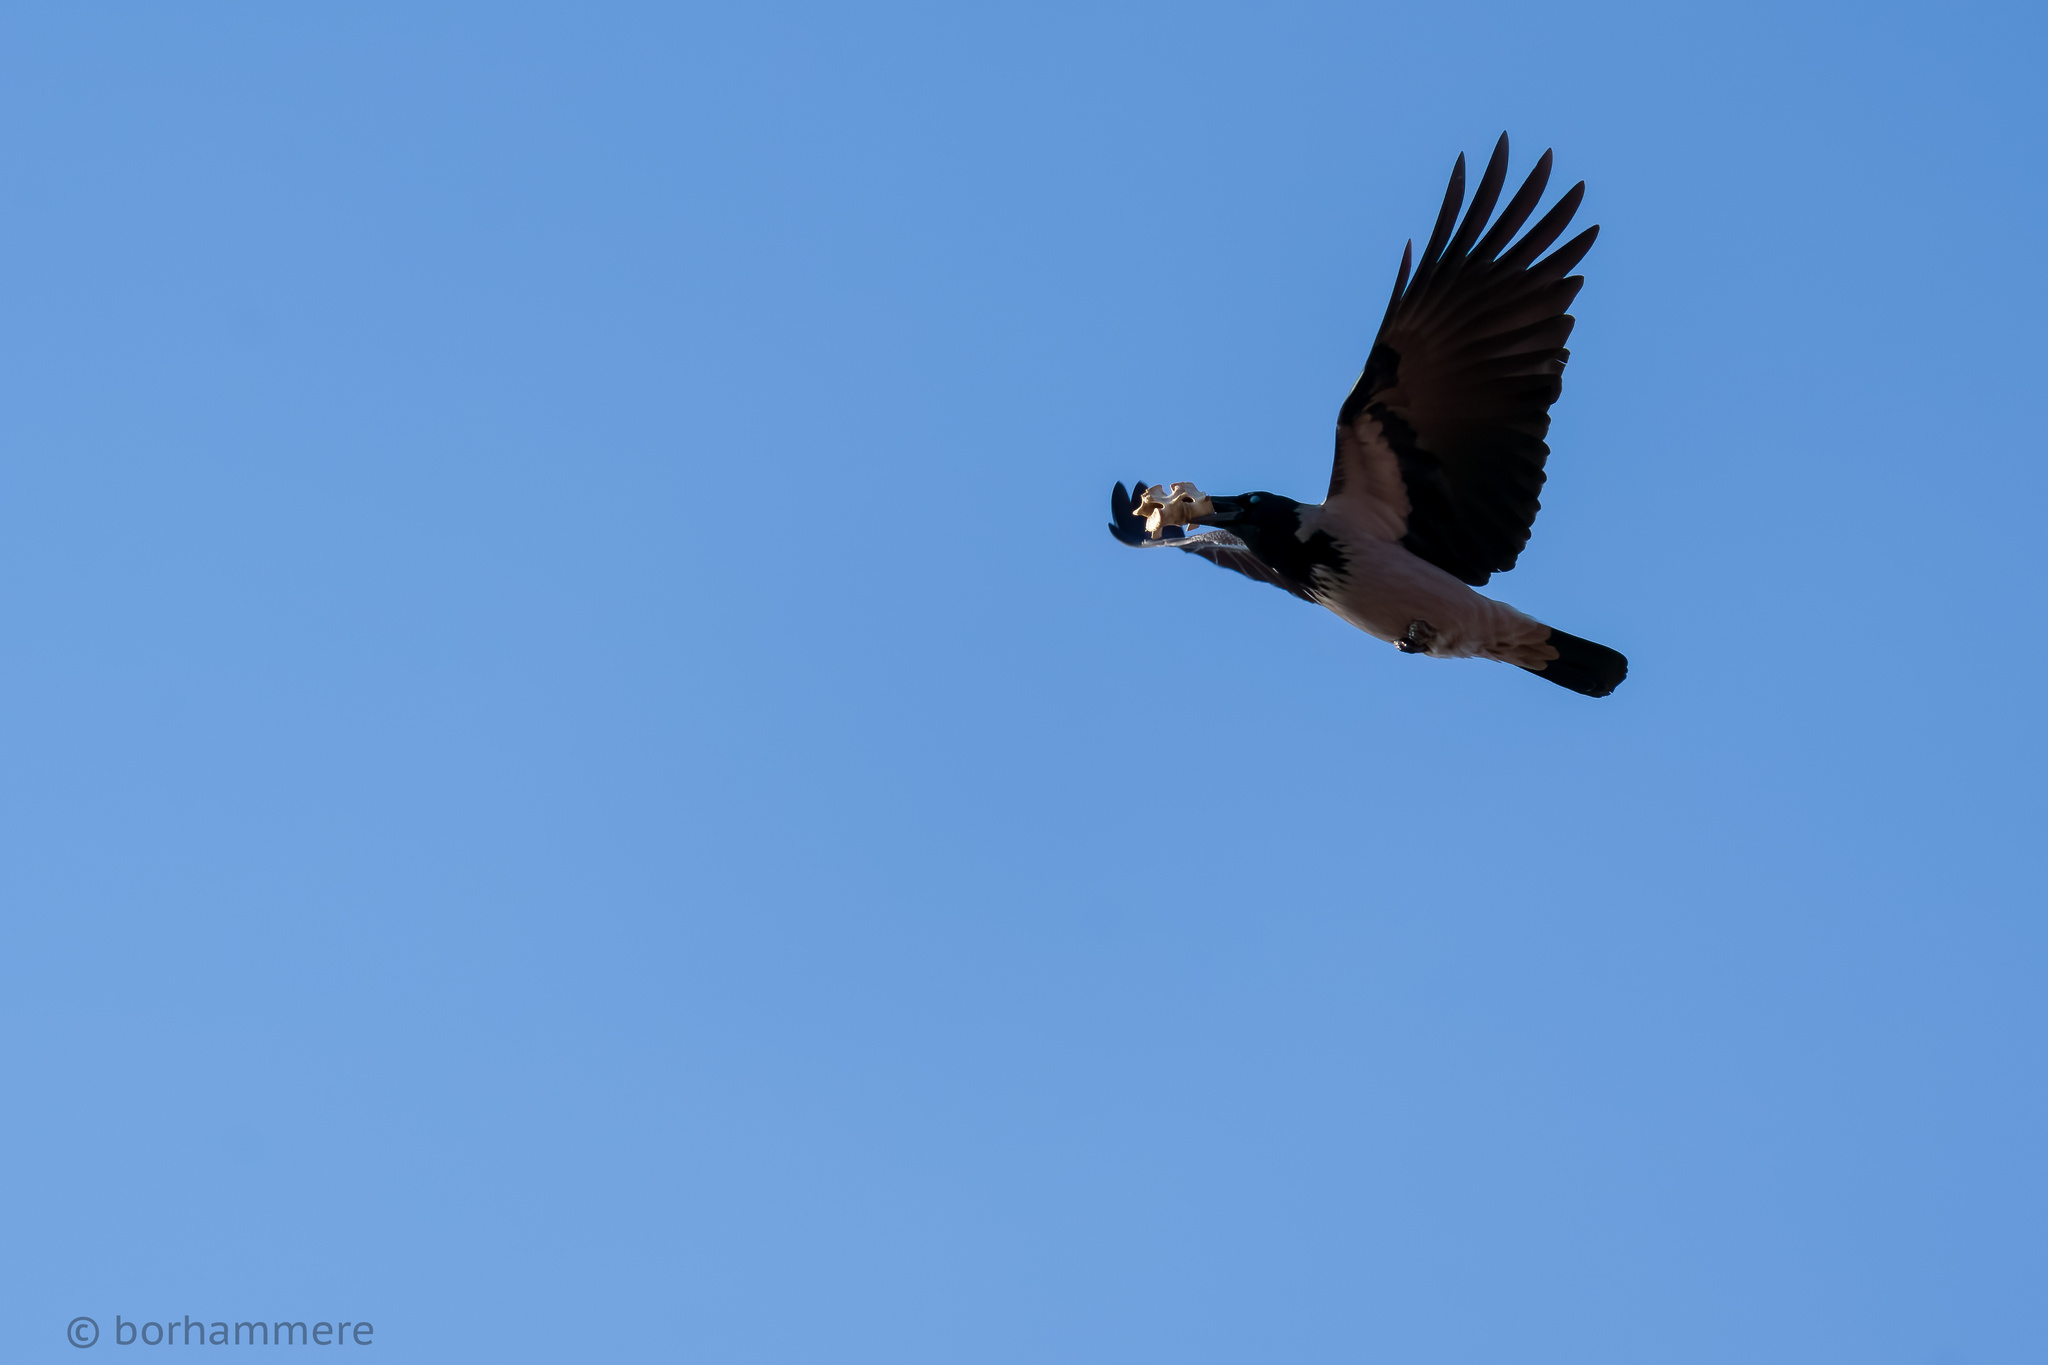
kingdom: Animalia
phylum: Chordata
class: Aves
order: Passeriformes
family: Corvidae
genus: Corvus
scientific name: Corvus cornix
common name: Hooded crow
